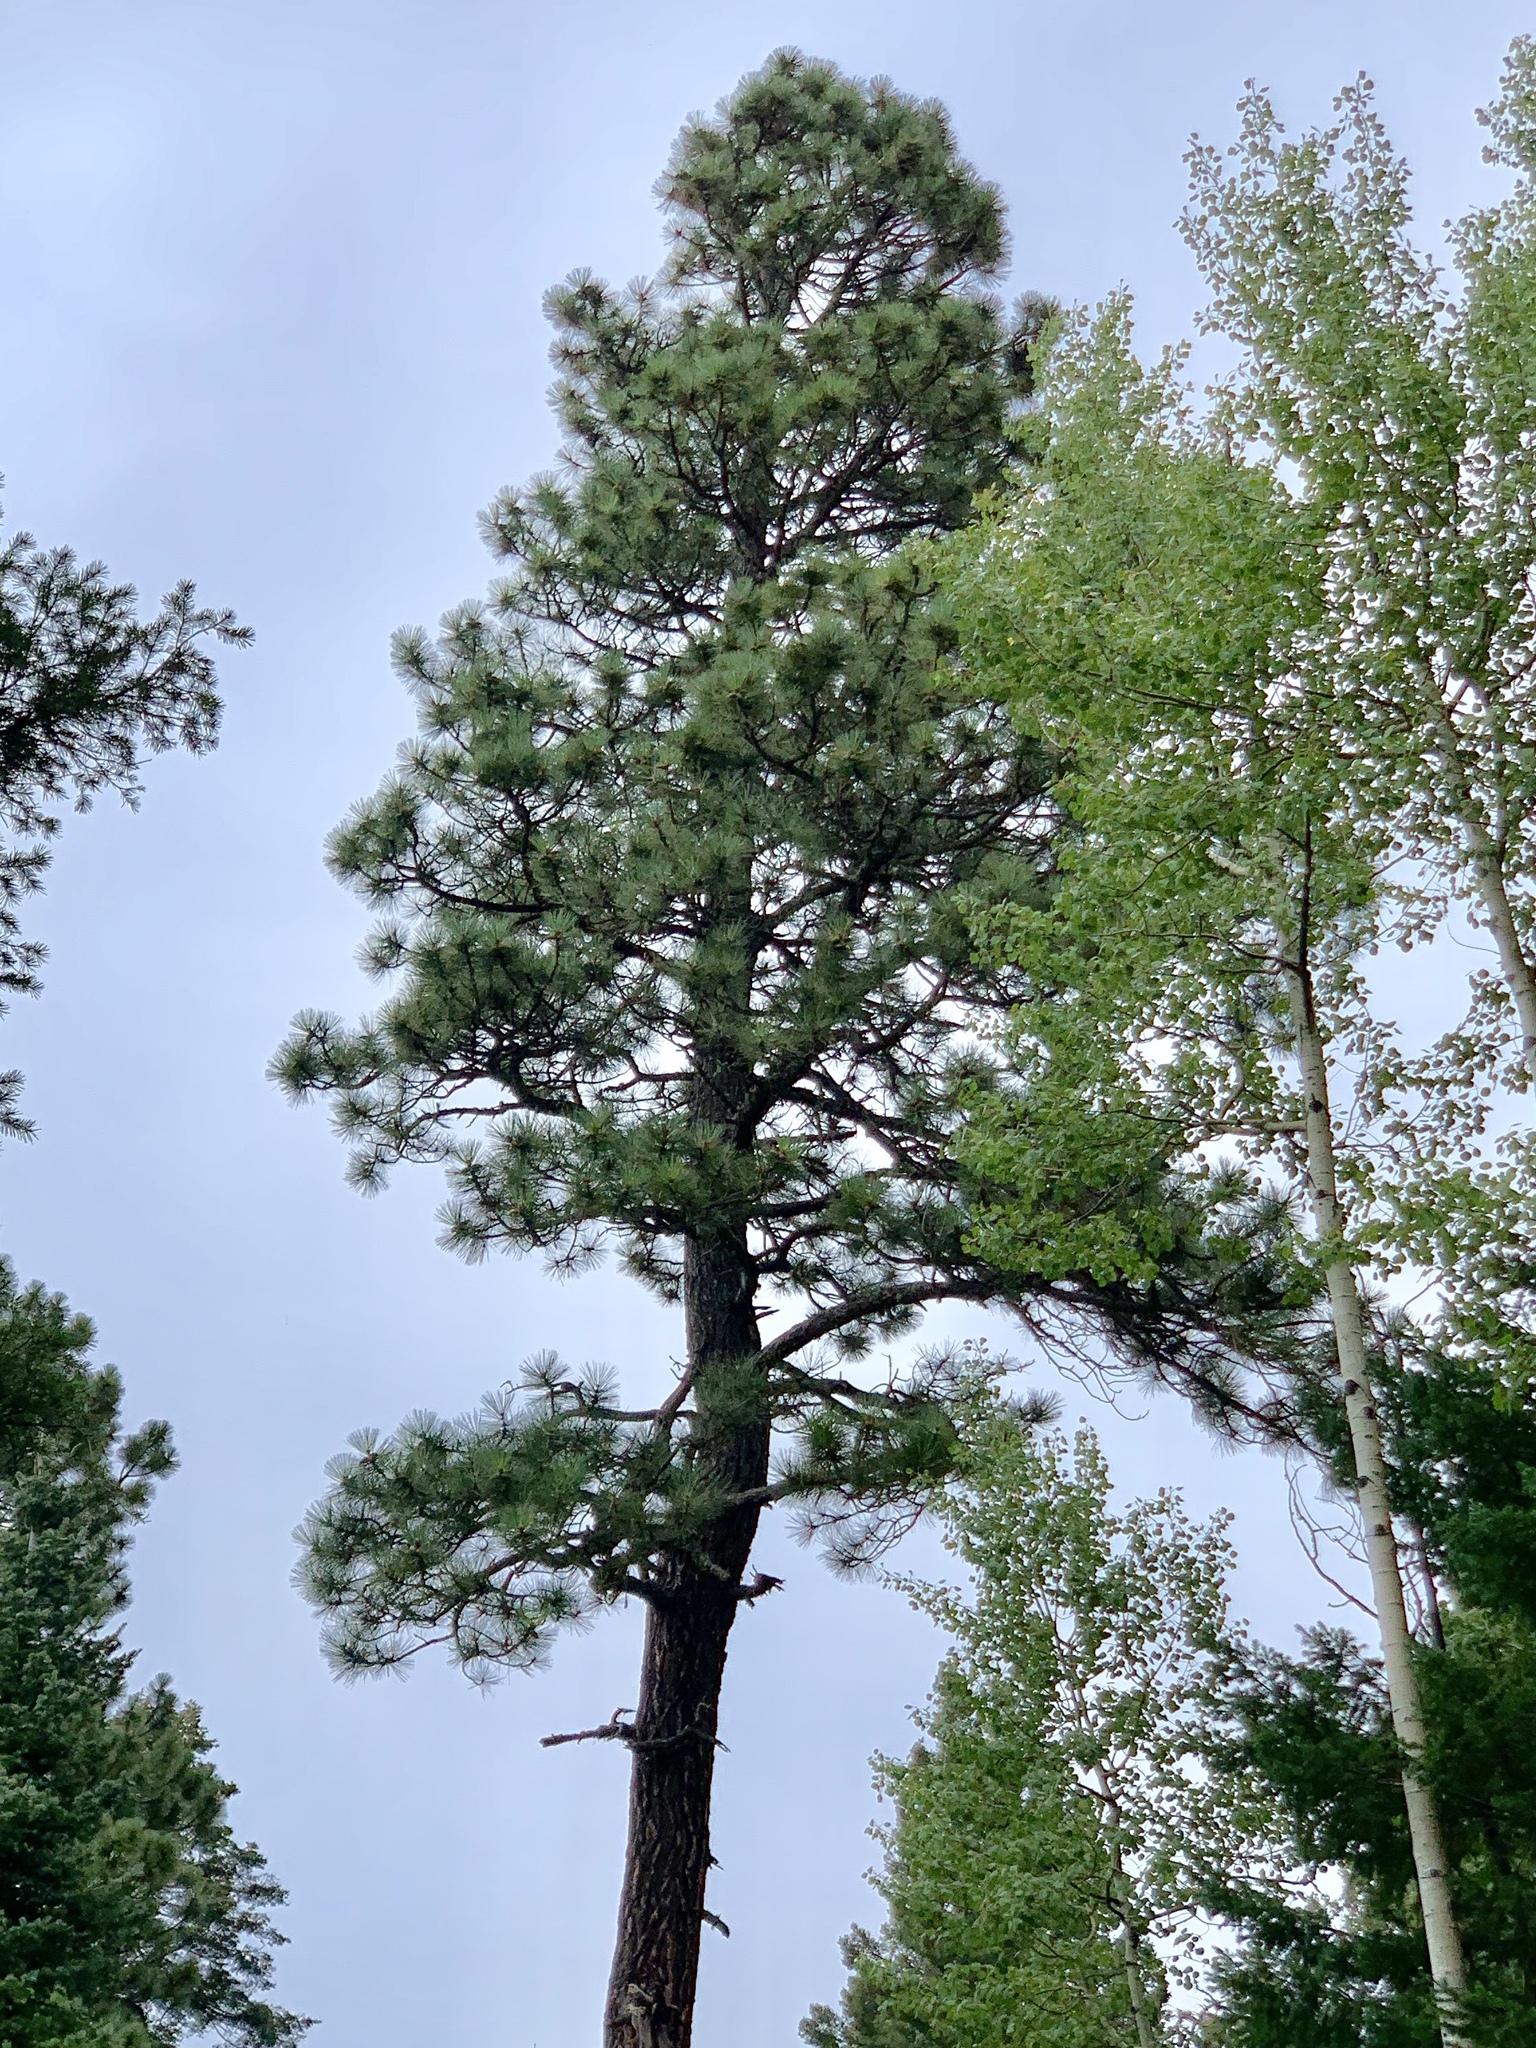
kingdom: Plantae
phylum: Tracheophyta
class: Pinopsida
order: Pinales
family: Pinaceae
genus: Pinus
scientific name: Pinus ponderosa
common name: Western yellow-pine
